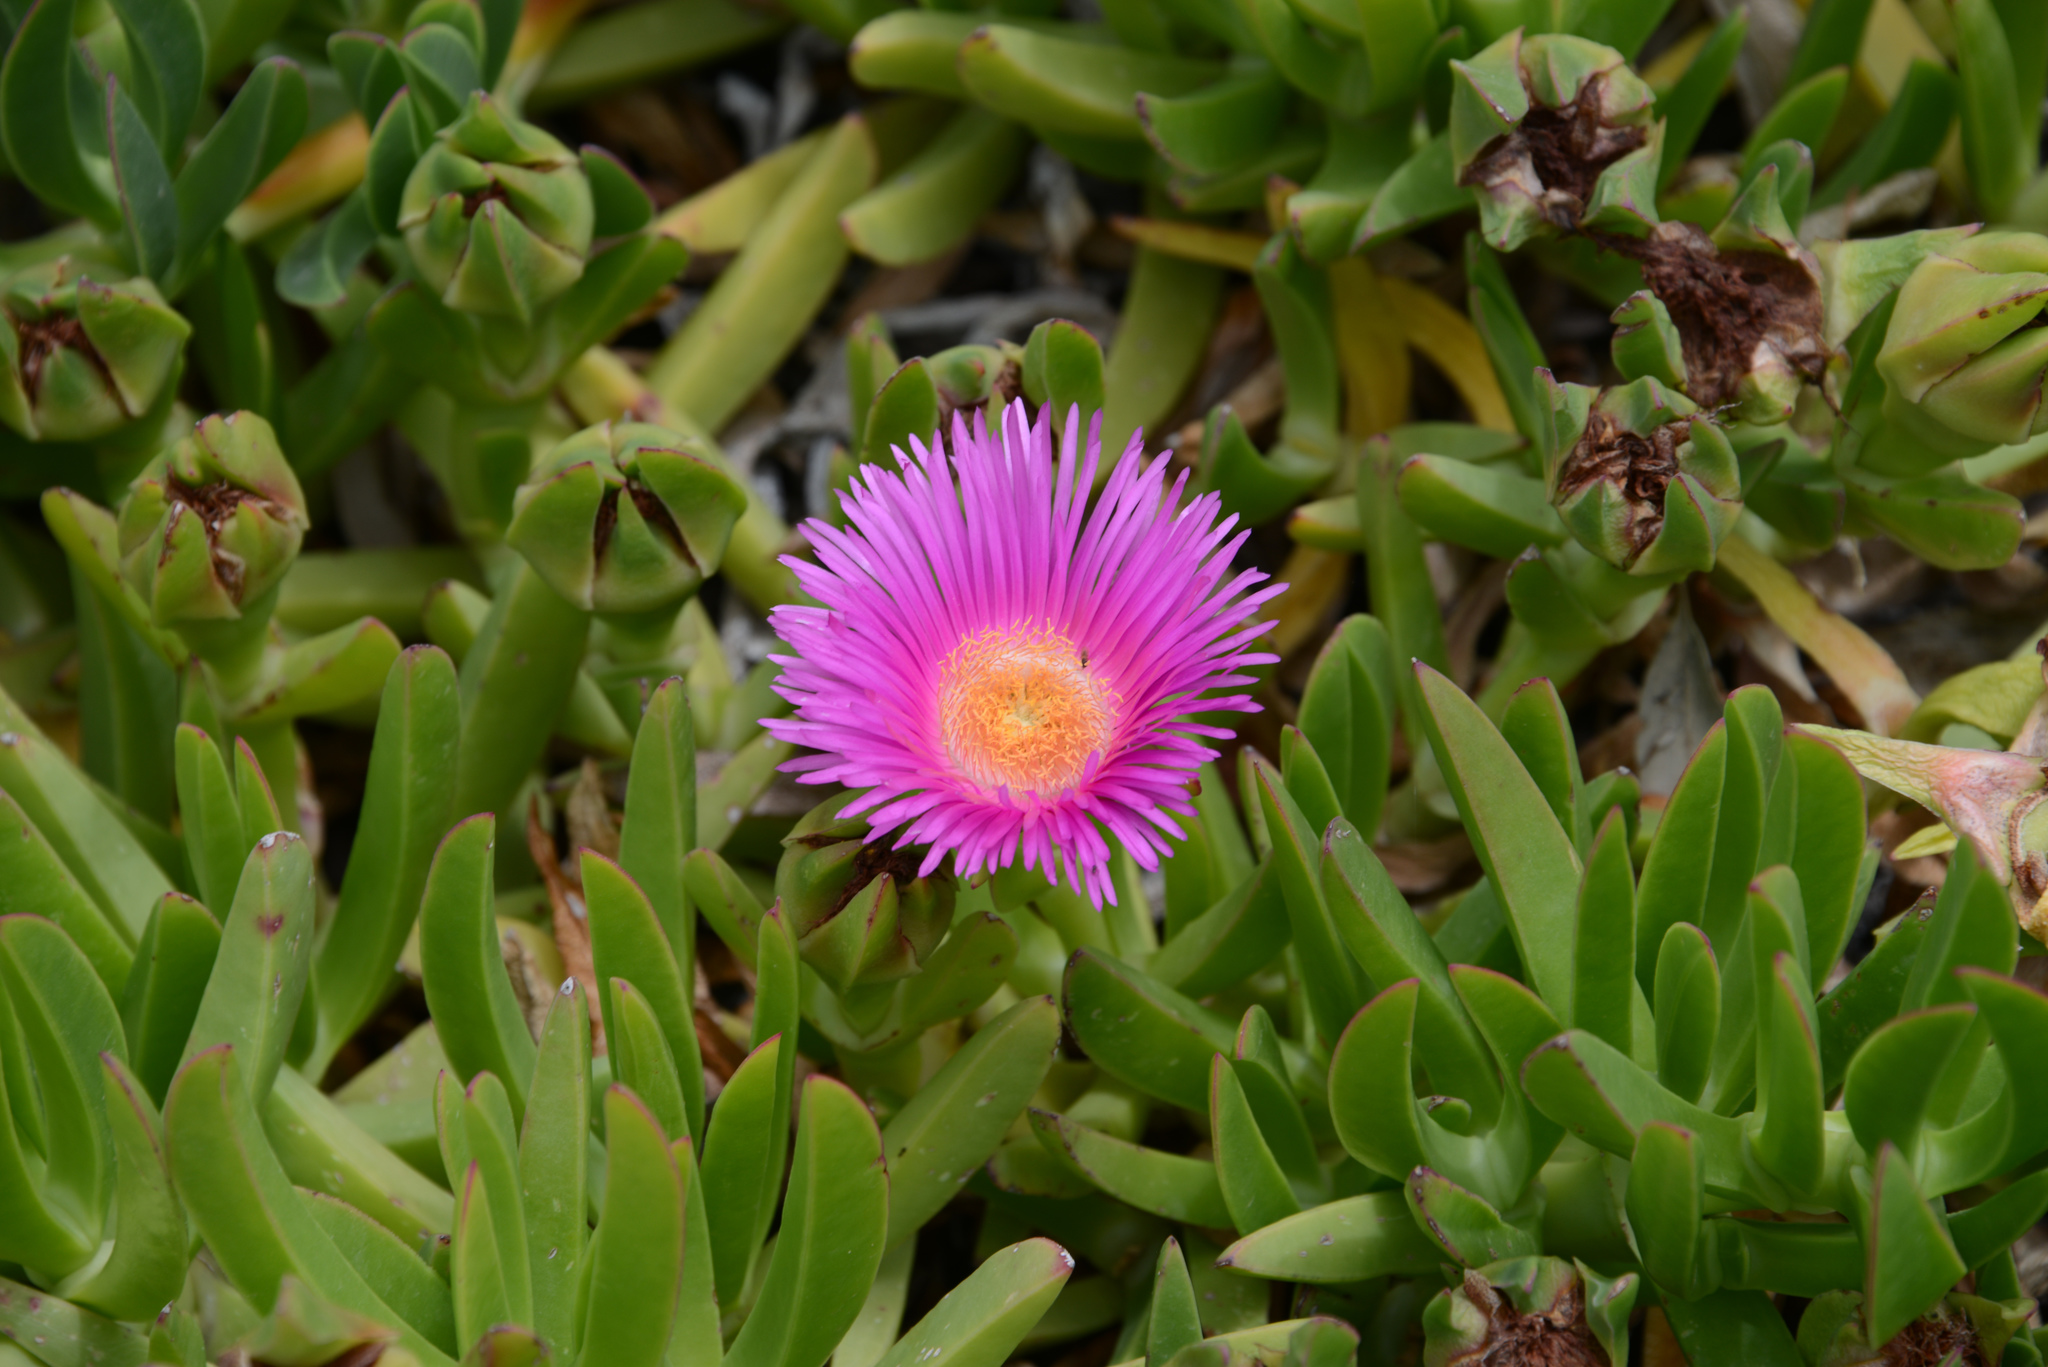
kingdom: Plantae
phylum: Tracheophyta
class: Magnoliopsida
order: Caryophyllales
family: Aizoaceae
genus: Carpobrotus
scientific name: Carpobrotus acinaciformis
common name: Sally-my-handsome
